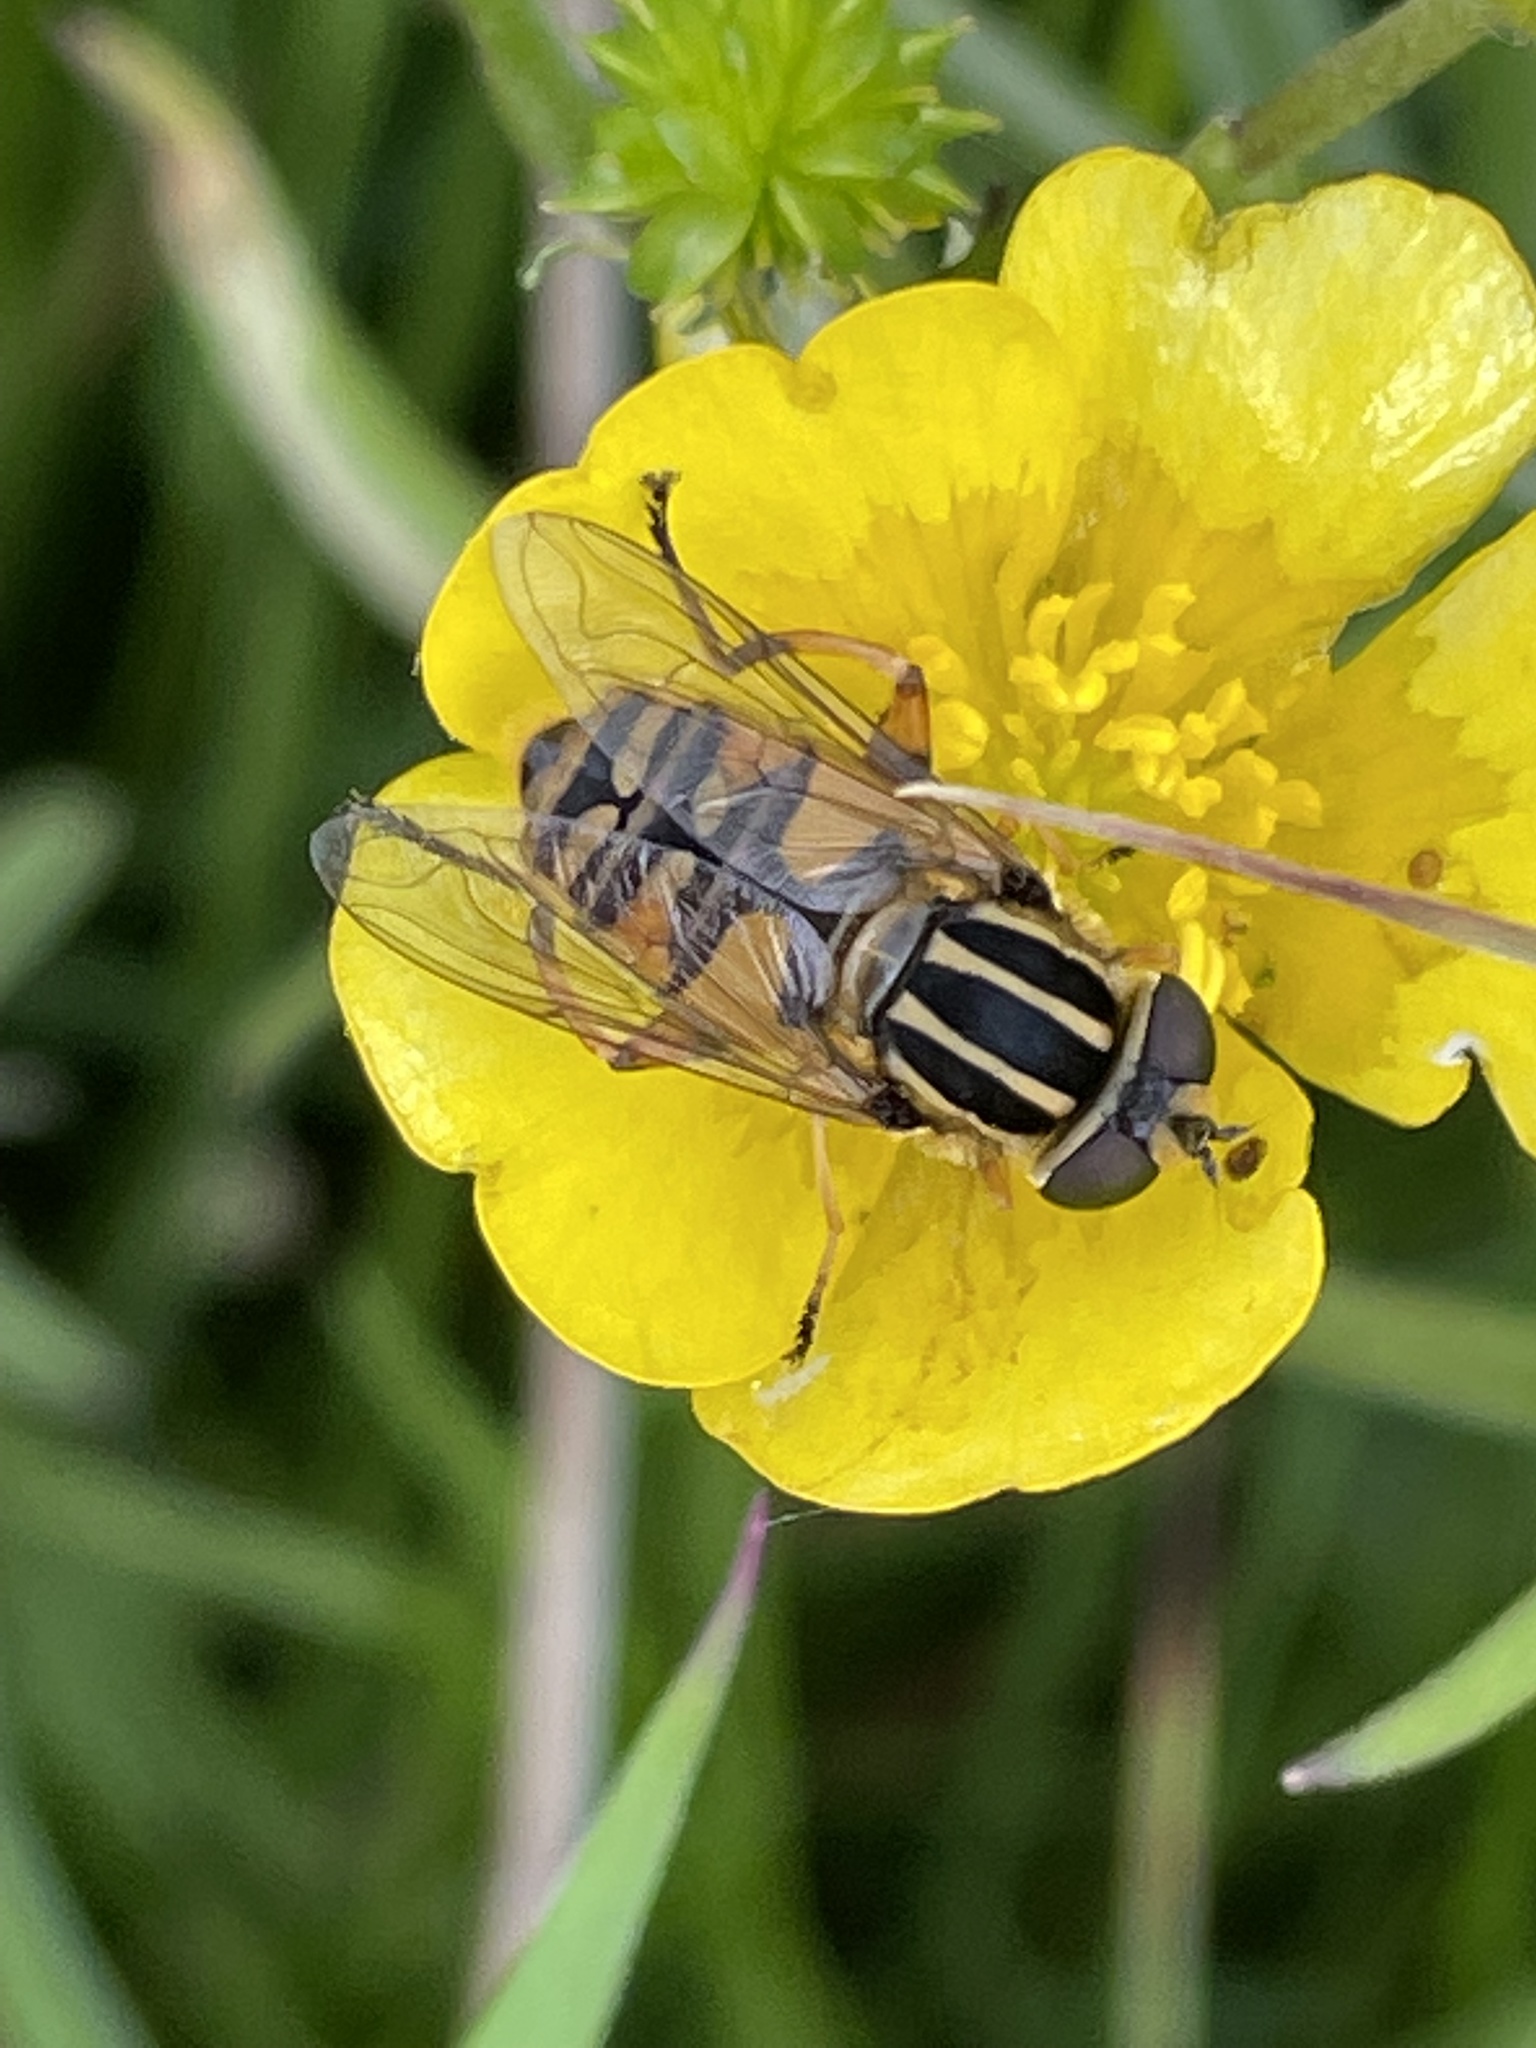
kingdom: Animalia
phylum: Arthropoda
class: Insecta
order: Diptera
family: Syrphidae
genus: Helophilus
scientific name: Helophilus pendulus
